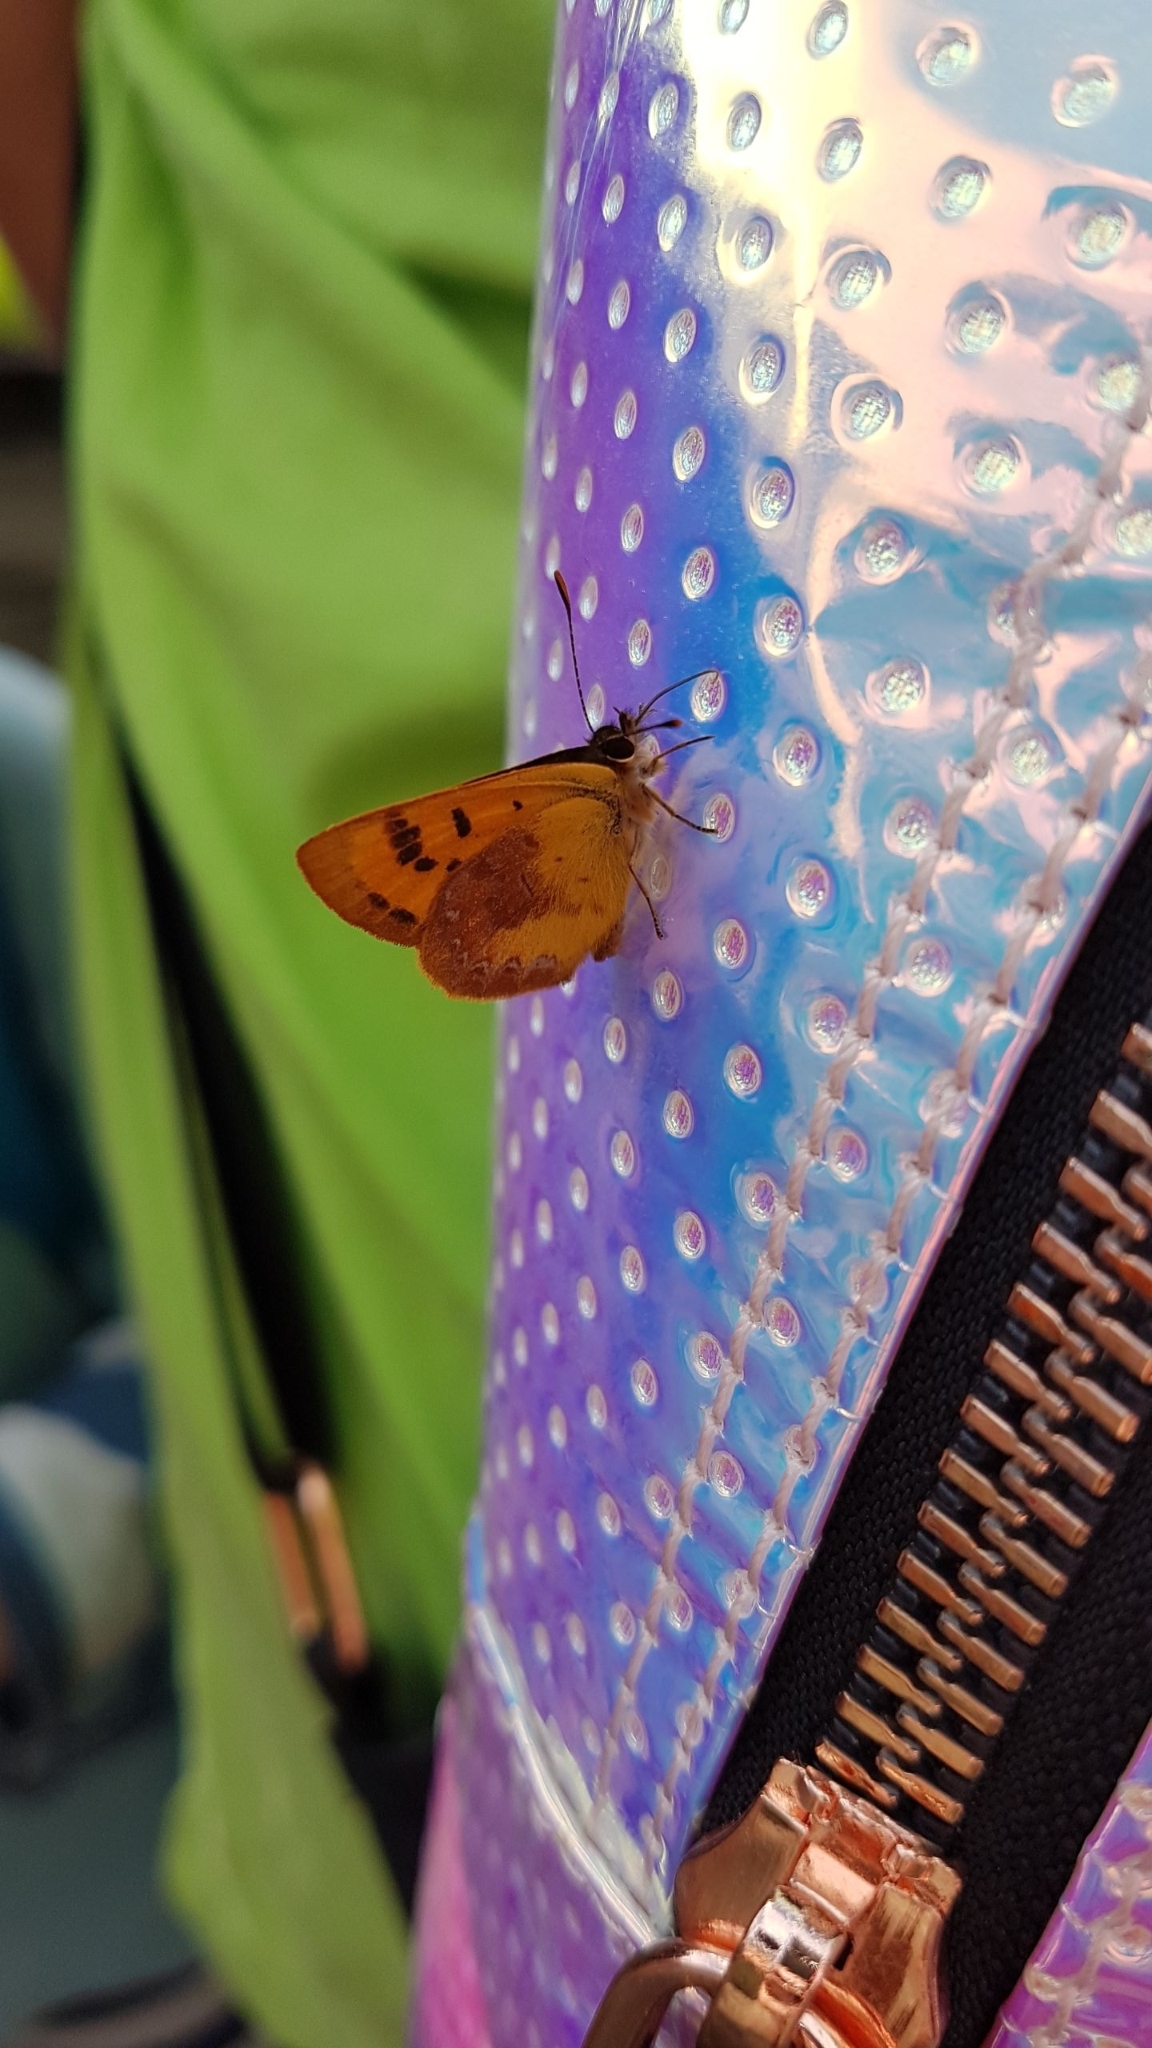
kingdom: Animalia
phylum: Arthropoda
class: Insecta
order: Lepidoptera
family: Lycaenidae
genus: Lycaena
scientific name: Lycaena
